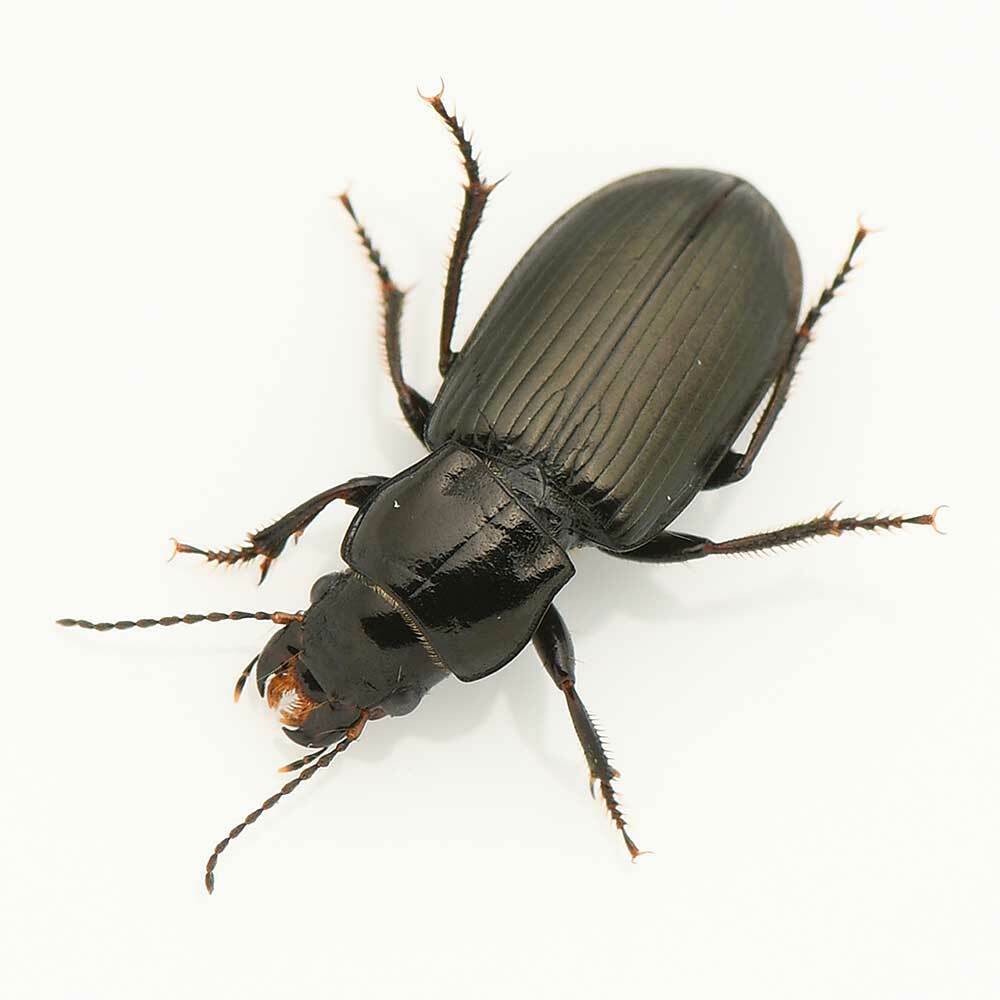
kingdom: Animalia
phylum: Arthropoda
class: Insecta
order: Coleoptera
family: Carabidae
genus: Anisodactylus
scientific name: Anisodactylus alternans
